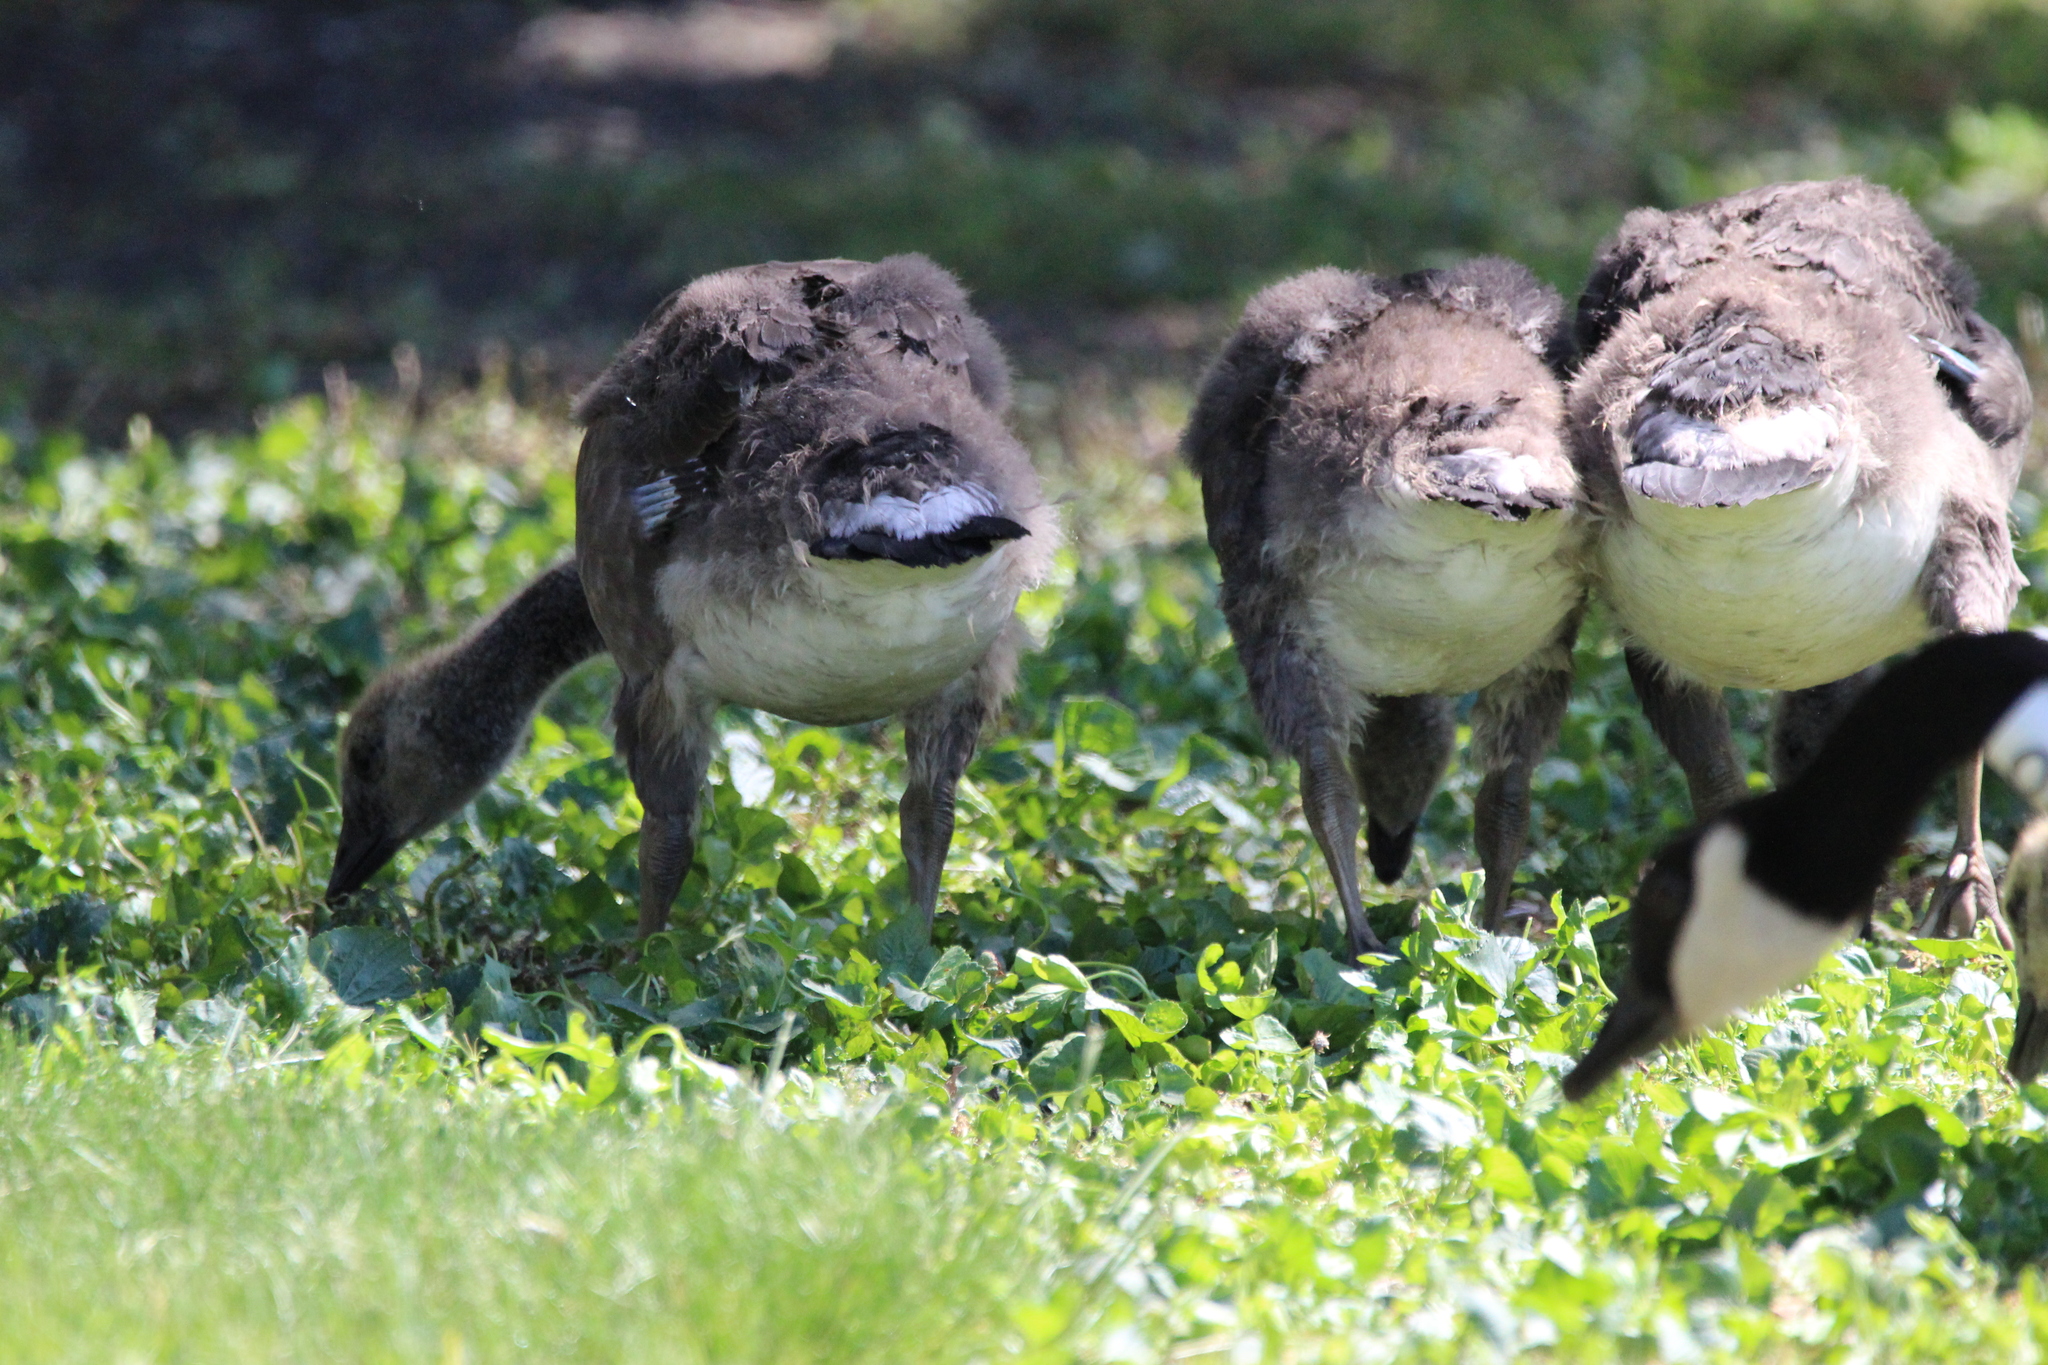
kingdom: Animalia
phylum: Chordata
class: Aves
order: Anseriformes
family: Anatidae
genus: Branta
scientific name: Branta canadensis
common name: Canada goose
